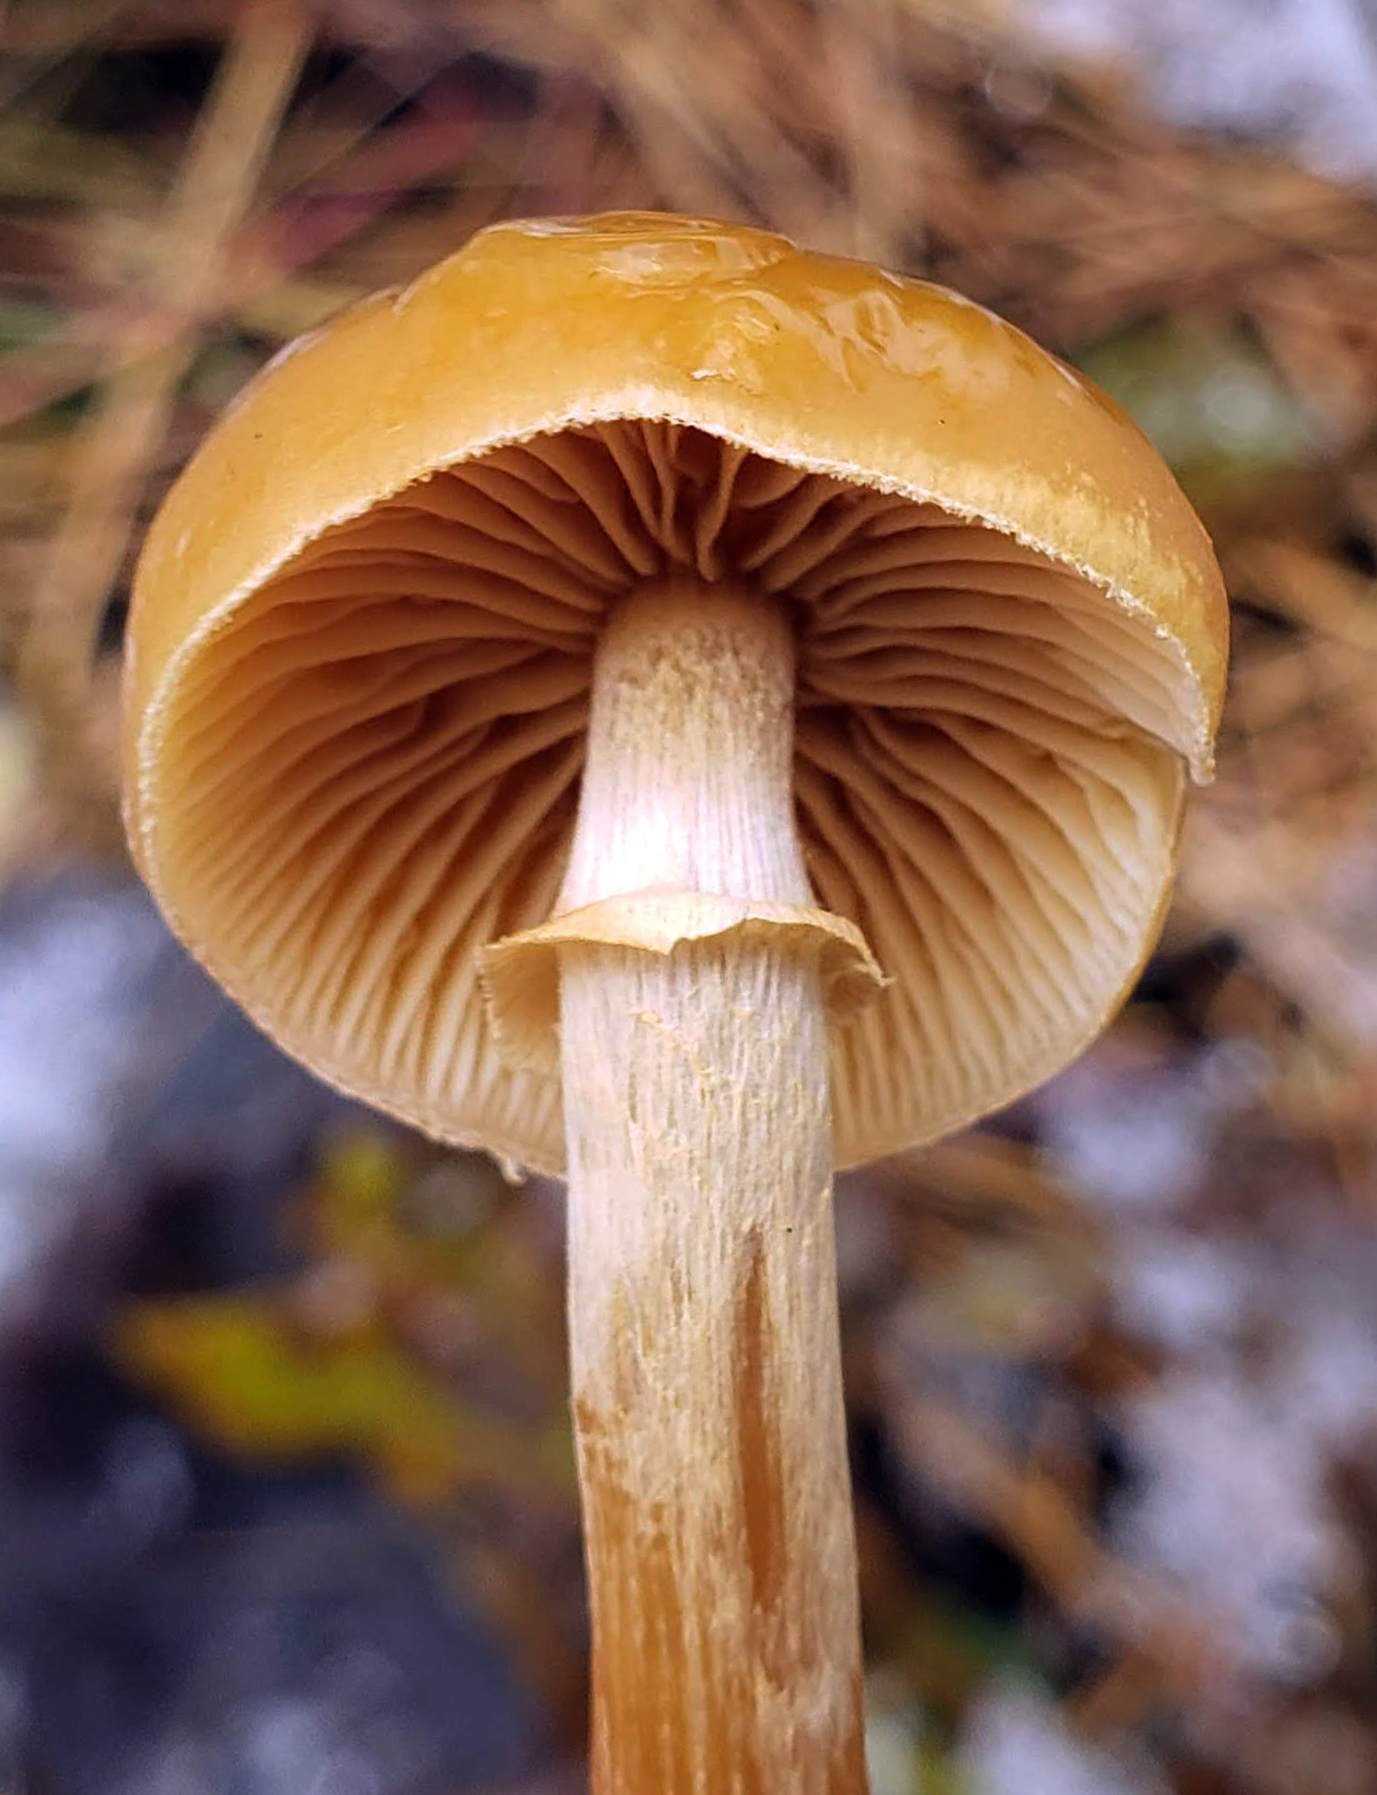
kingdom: Fungi
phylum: Basidiomycota
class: Agaricomycetes
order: Agaricales
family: Hymenogastraceae
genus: Galerina
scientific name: Galerina marginata
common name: Funeral bell
